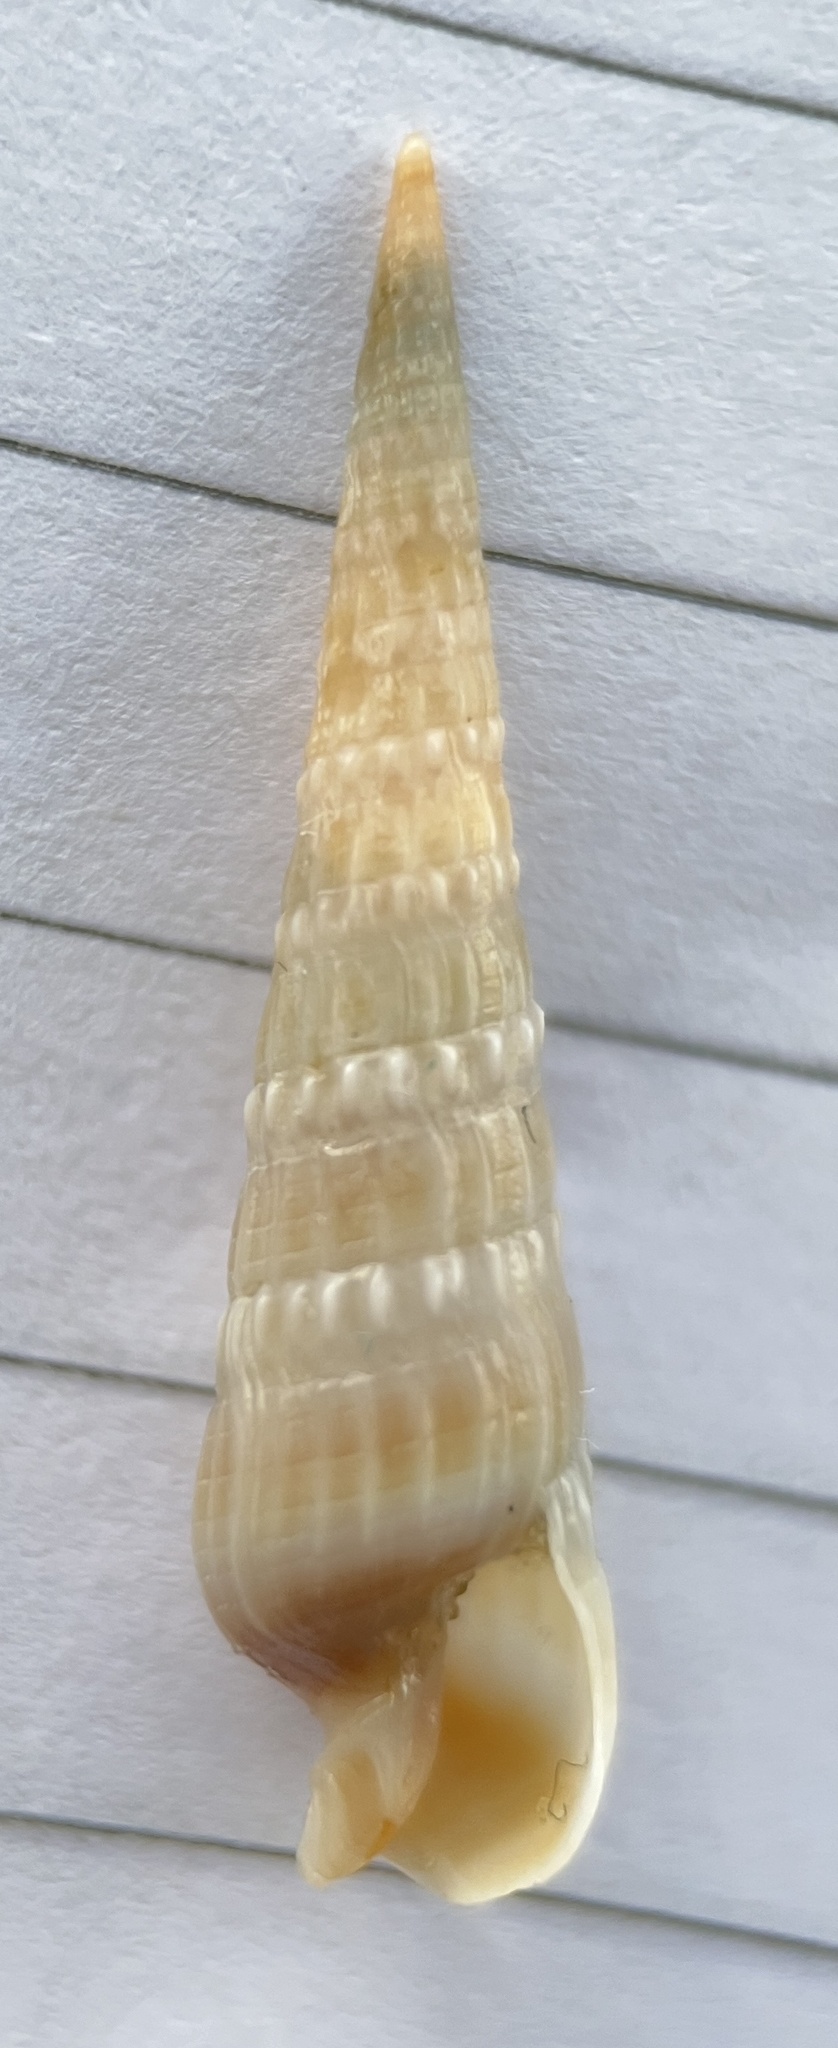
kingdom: Animalia
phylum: Mollusca
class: Gastropoda
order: Neogastropoda
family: Terebridae
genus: Neoterebra
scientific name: Neoterebra dislocata
